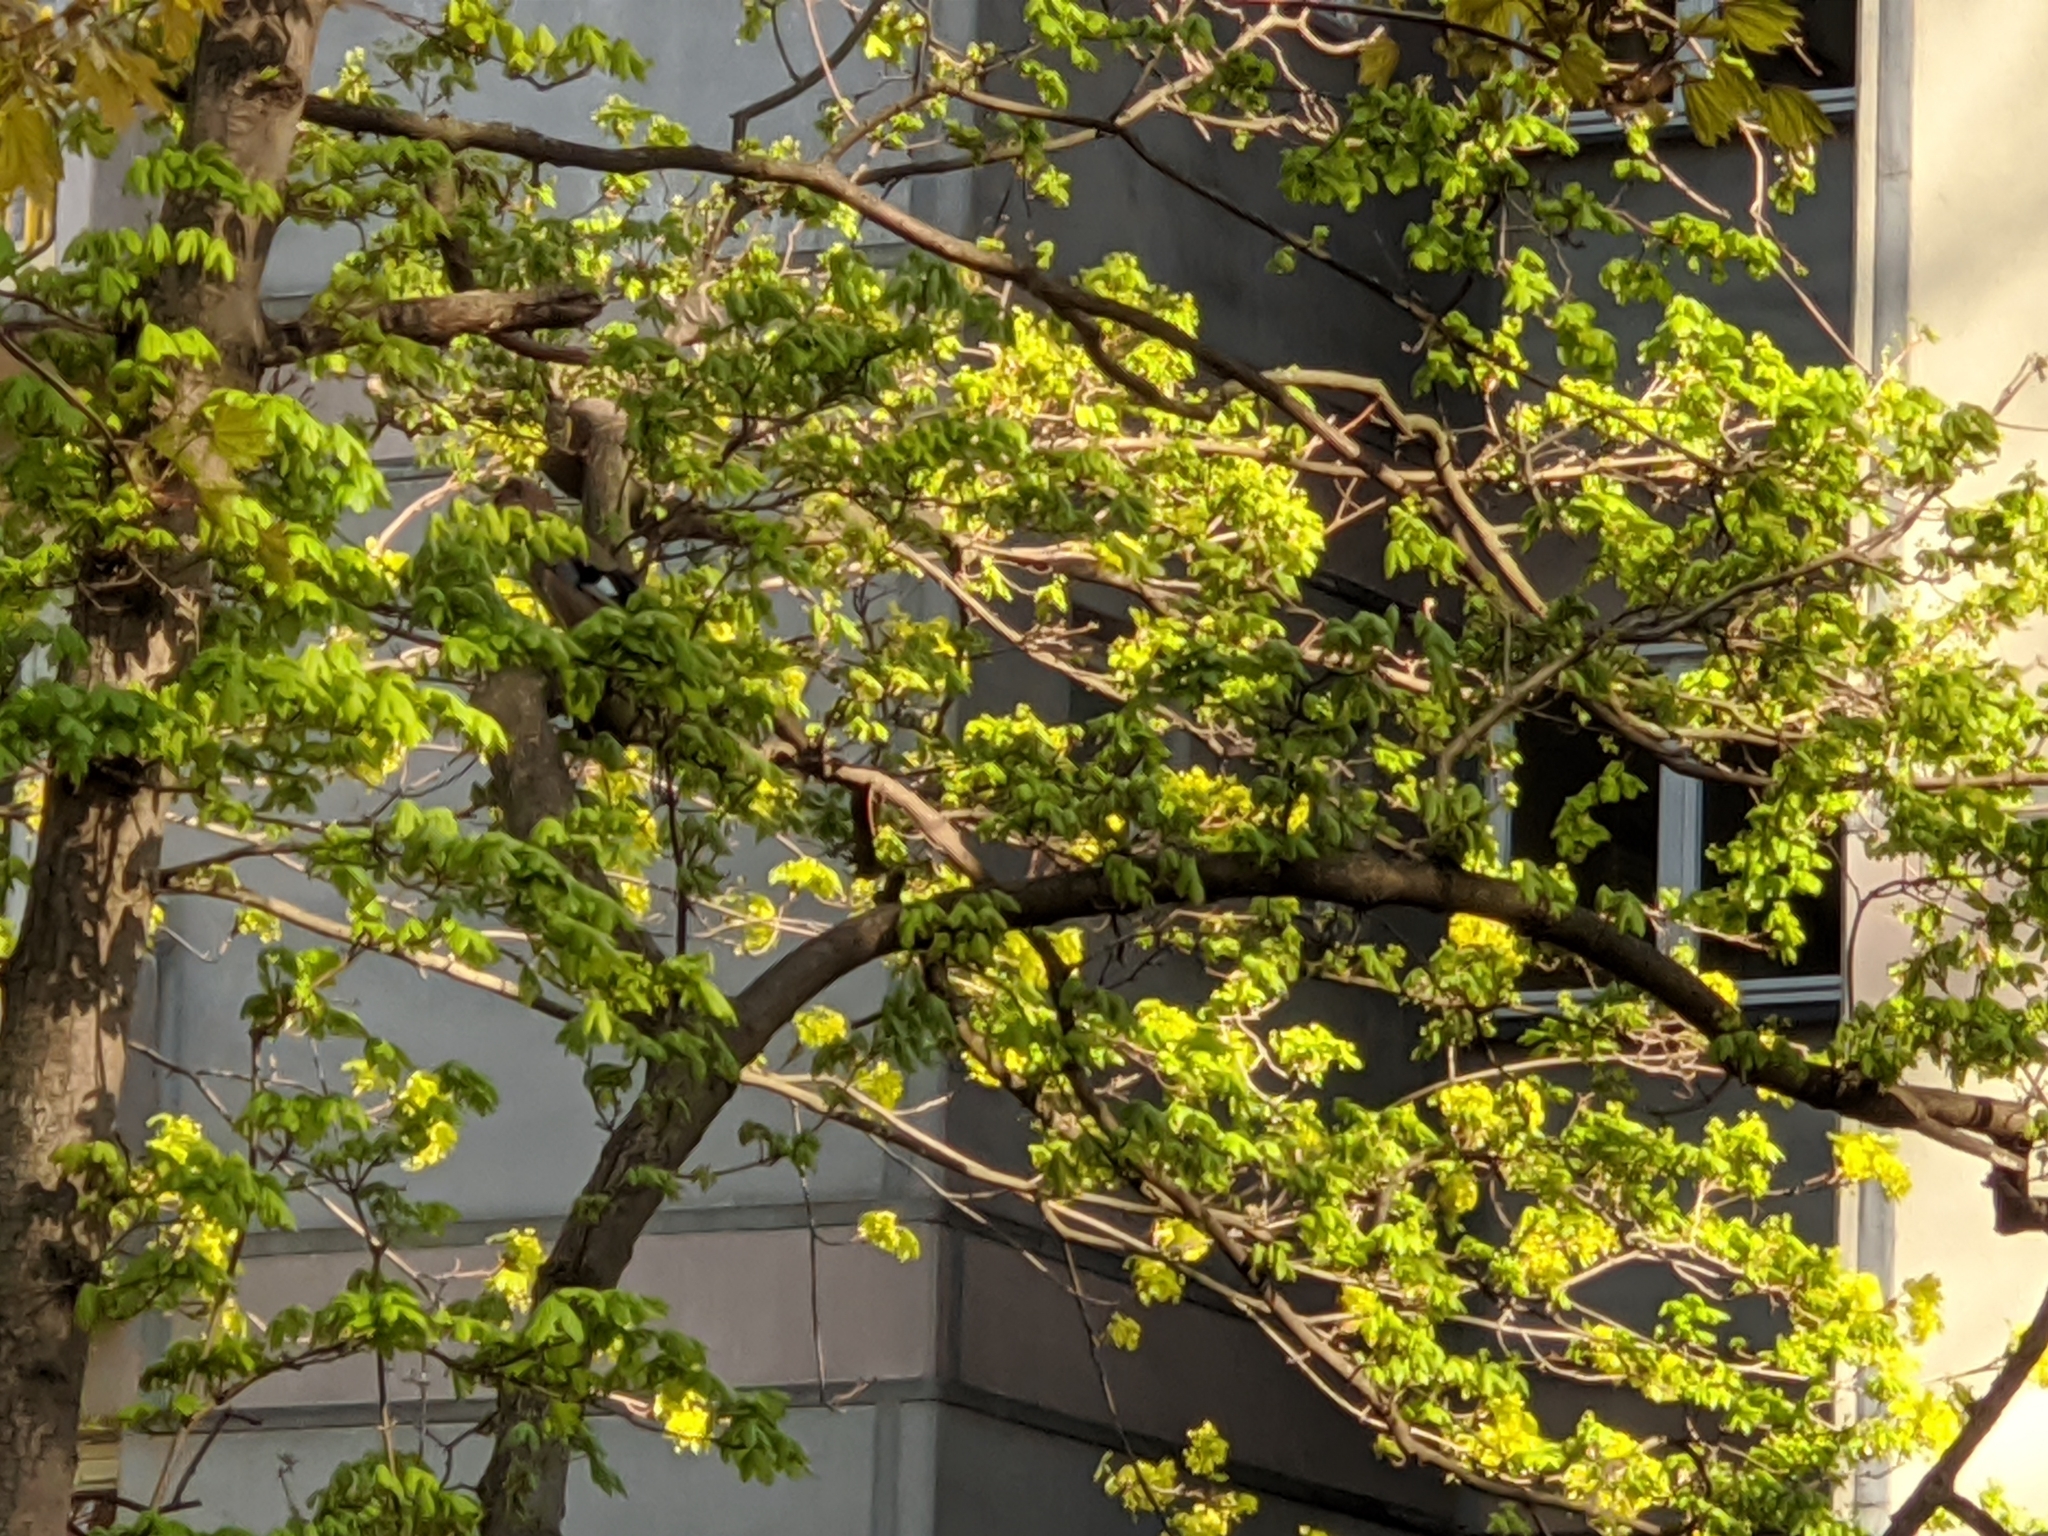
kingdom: Animalia
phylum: Chordata
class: Aves
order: Passeriformes
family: Corvidae
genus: Garrulus
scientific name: Garrulus glandarius
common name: Eurasian jay
